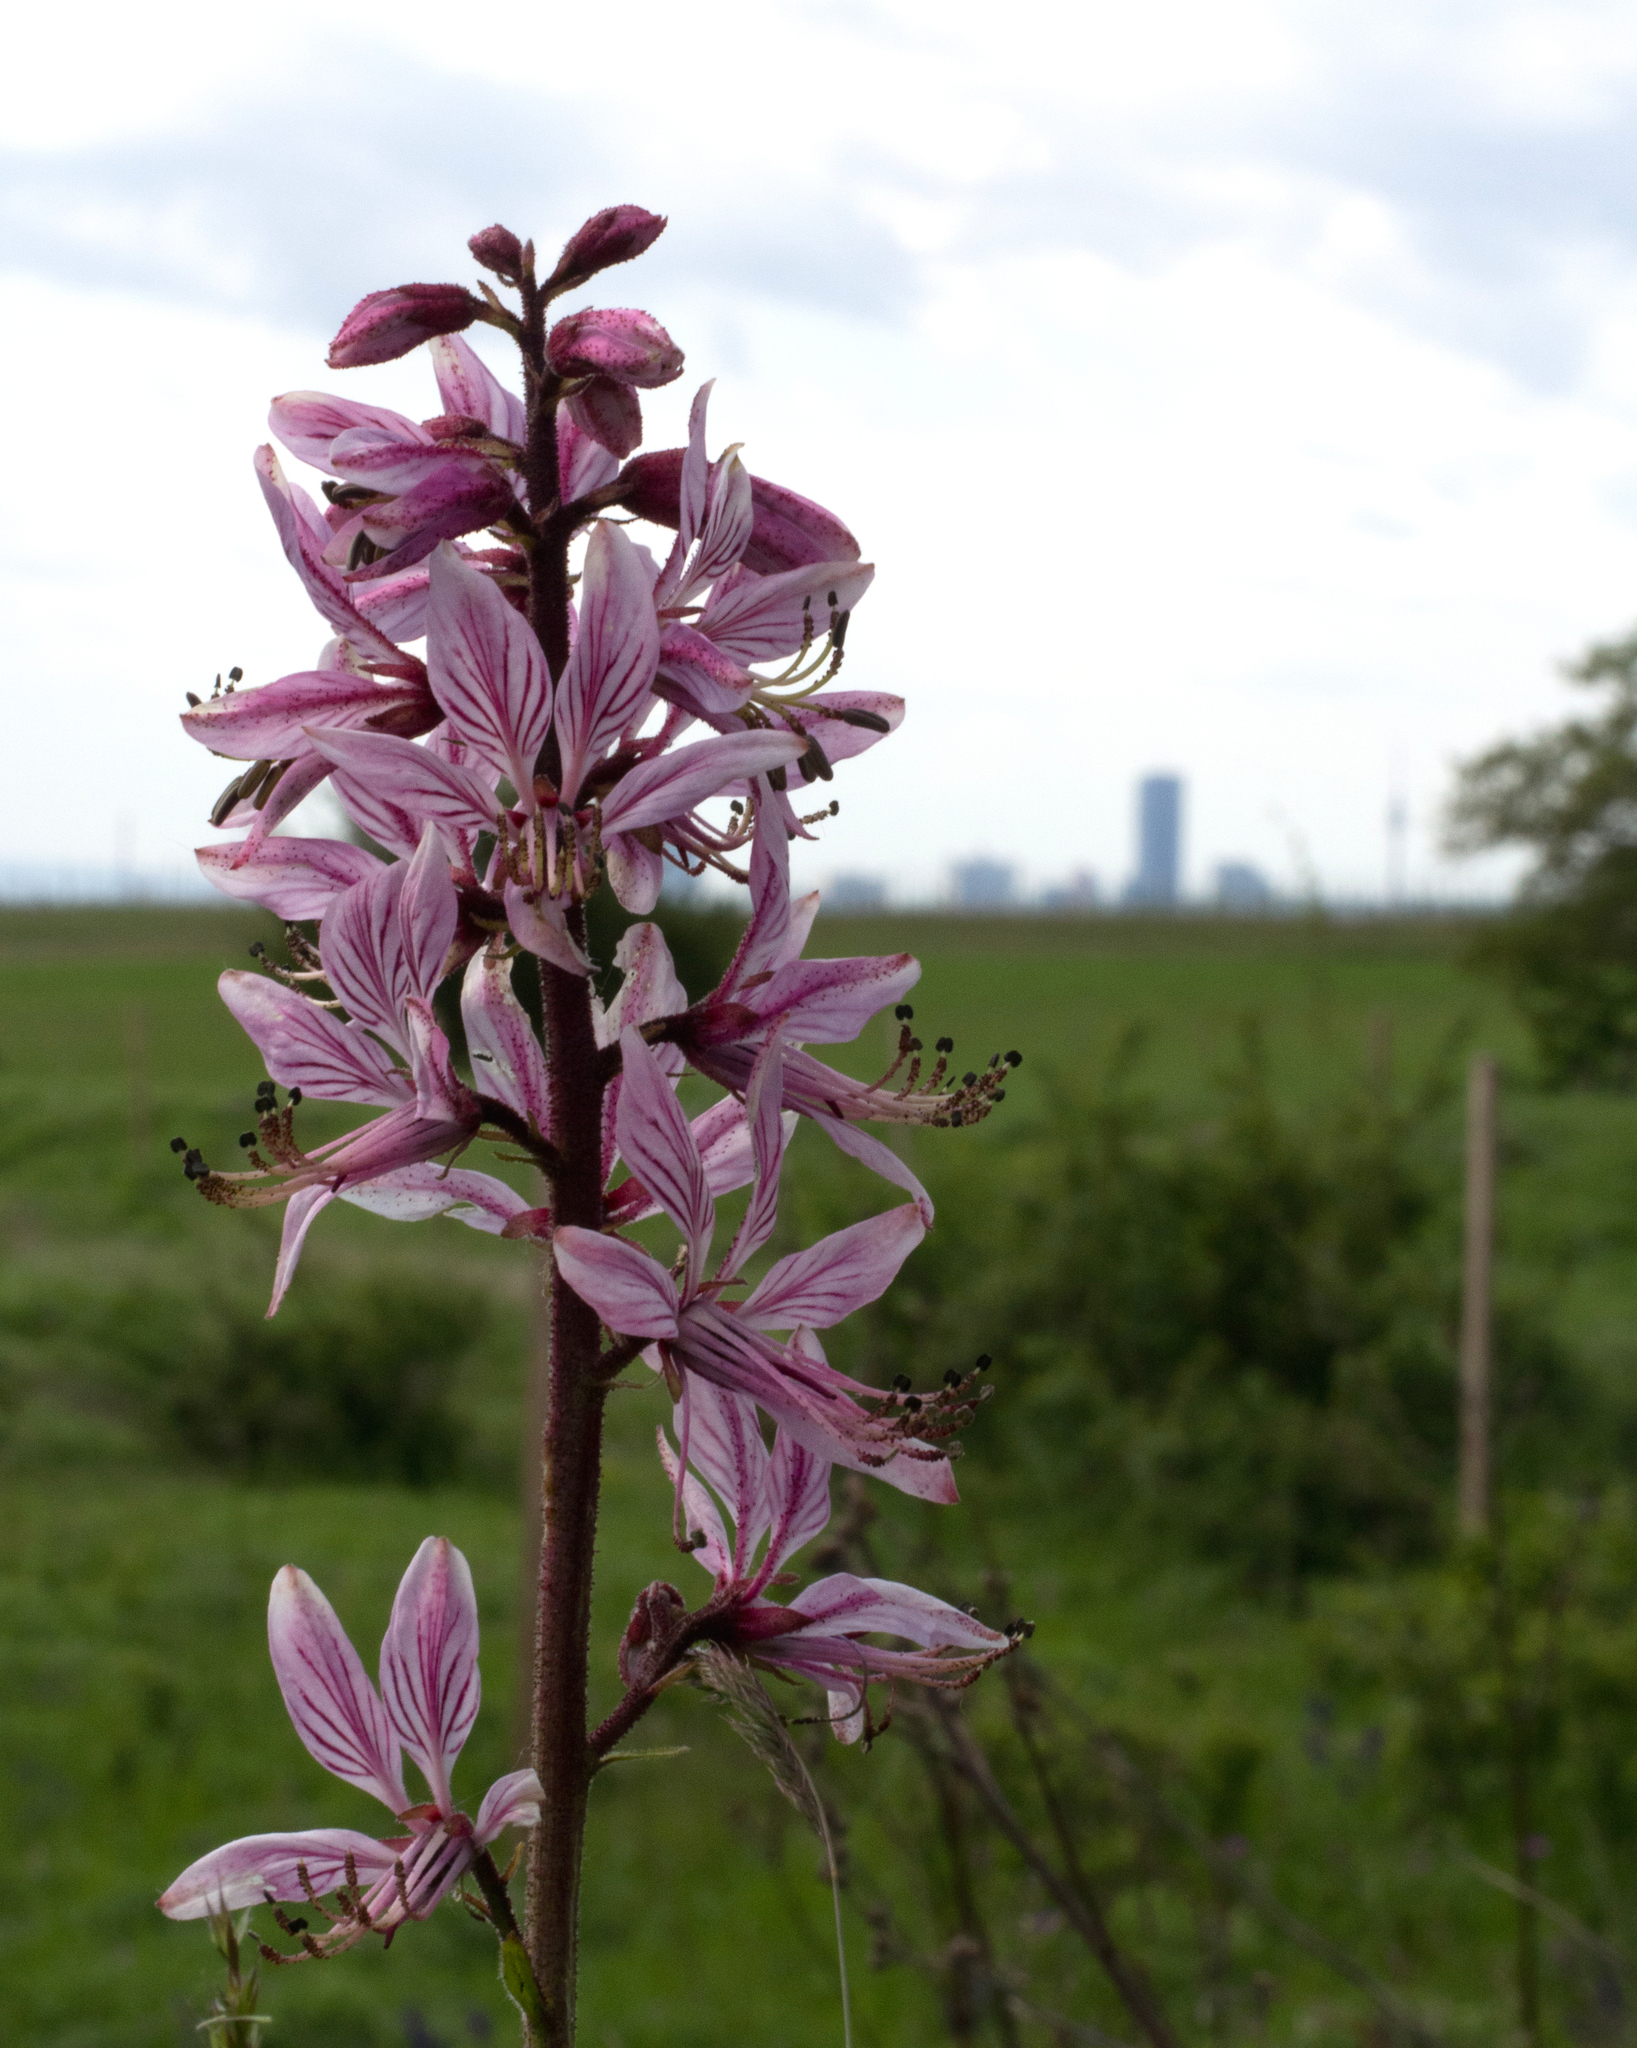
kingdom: Plantae
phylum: Tracheophyta
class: Magnoliopsida
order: Sapindales
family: Rutaceae
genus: Dictamnus
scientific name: Dictamnus albus
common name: Gasplant
